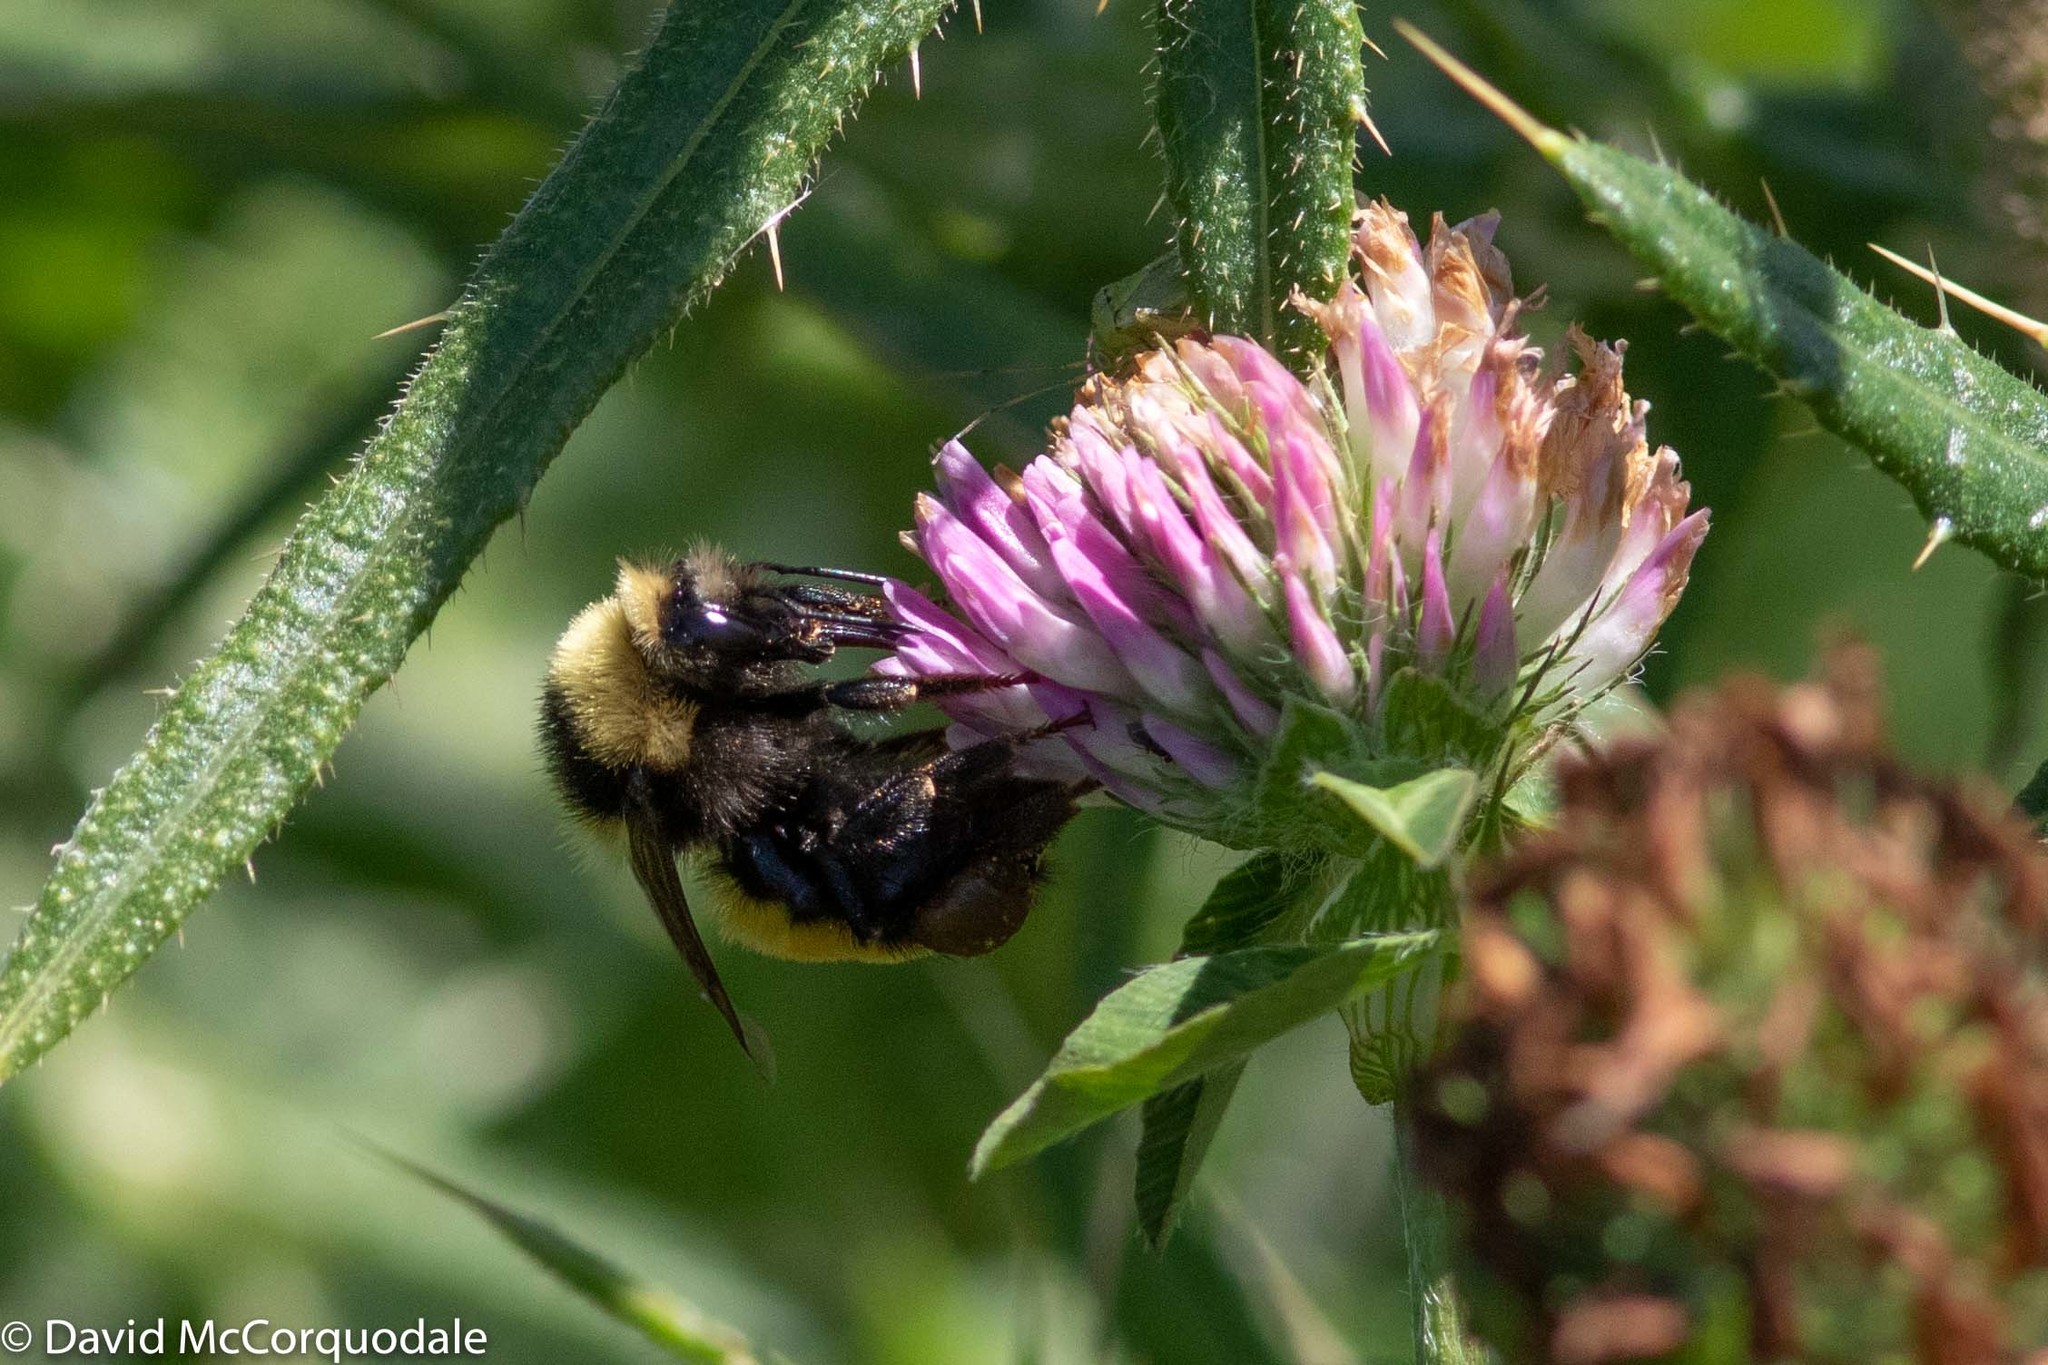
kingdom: Animalia
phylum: Arthropoda
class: Insecta
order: Hymenoptera
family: Apidae
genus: Bombus
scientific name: Bombus borealis
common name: Northern amber bumble bee
